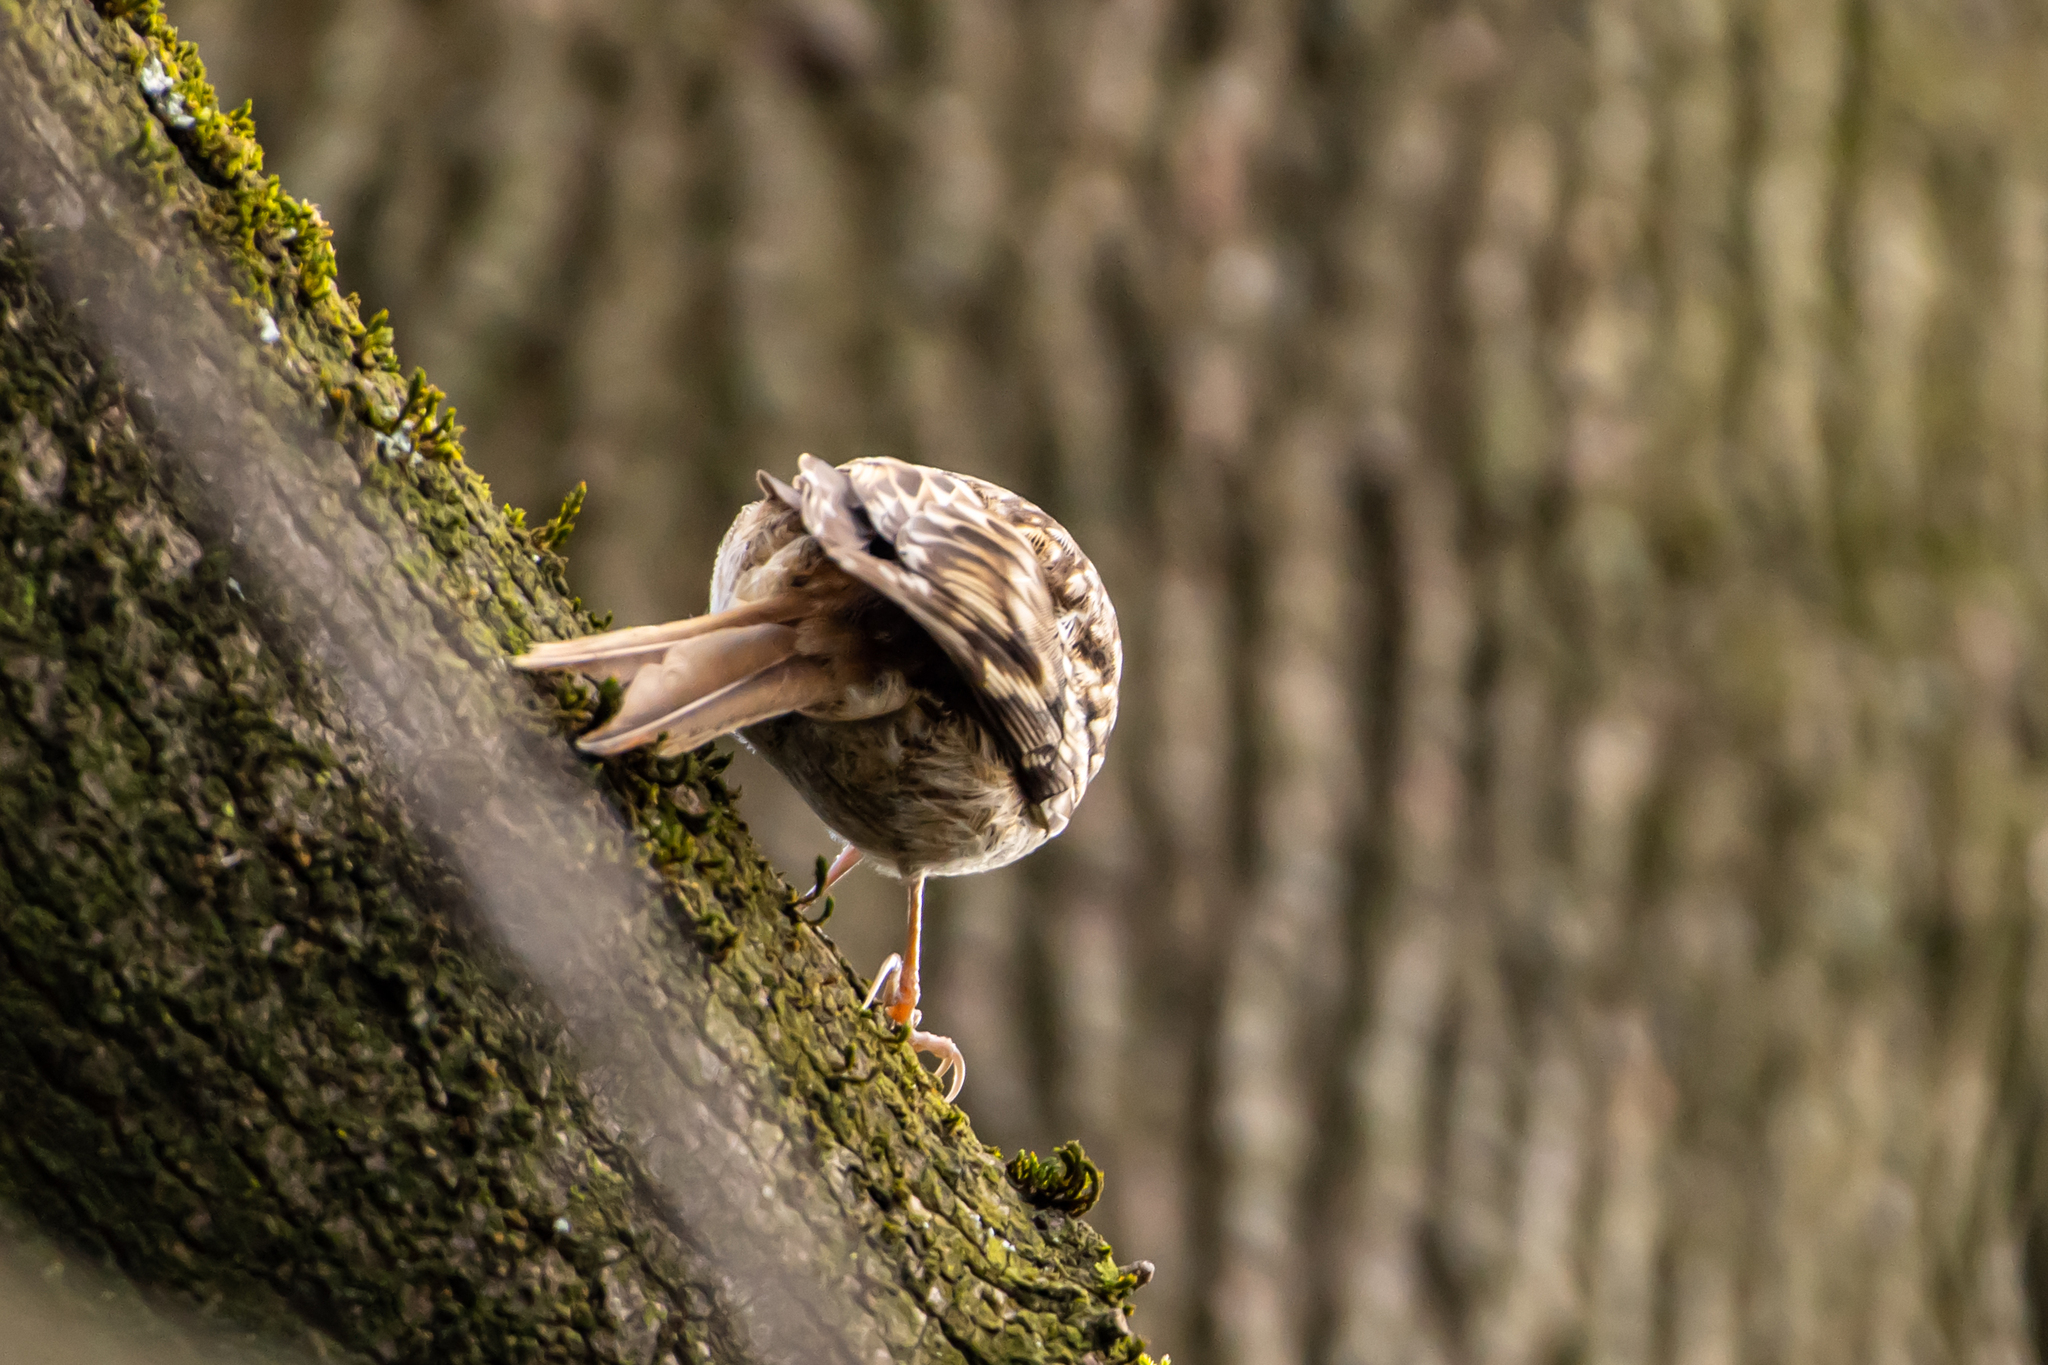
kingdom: Animalia
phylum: Chordata
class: Aves
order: Passeriformes
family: Certhiidae
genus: Certhia
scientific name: Certhia brachydactyla
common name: Short-toed treecreeper
